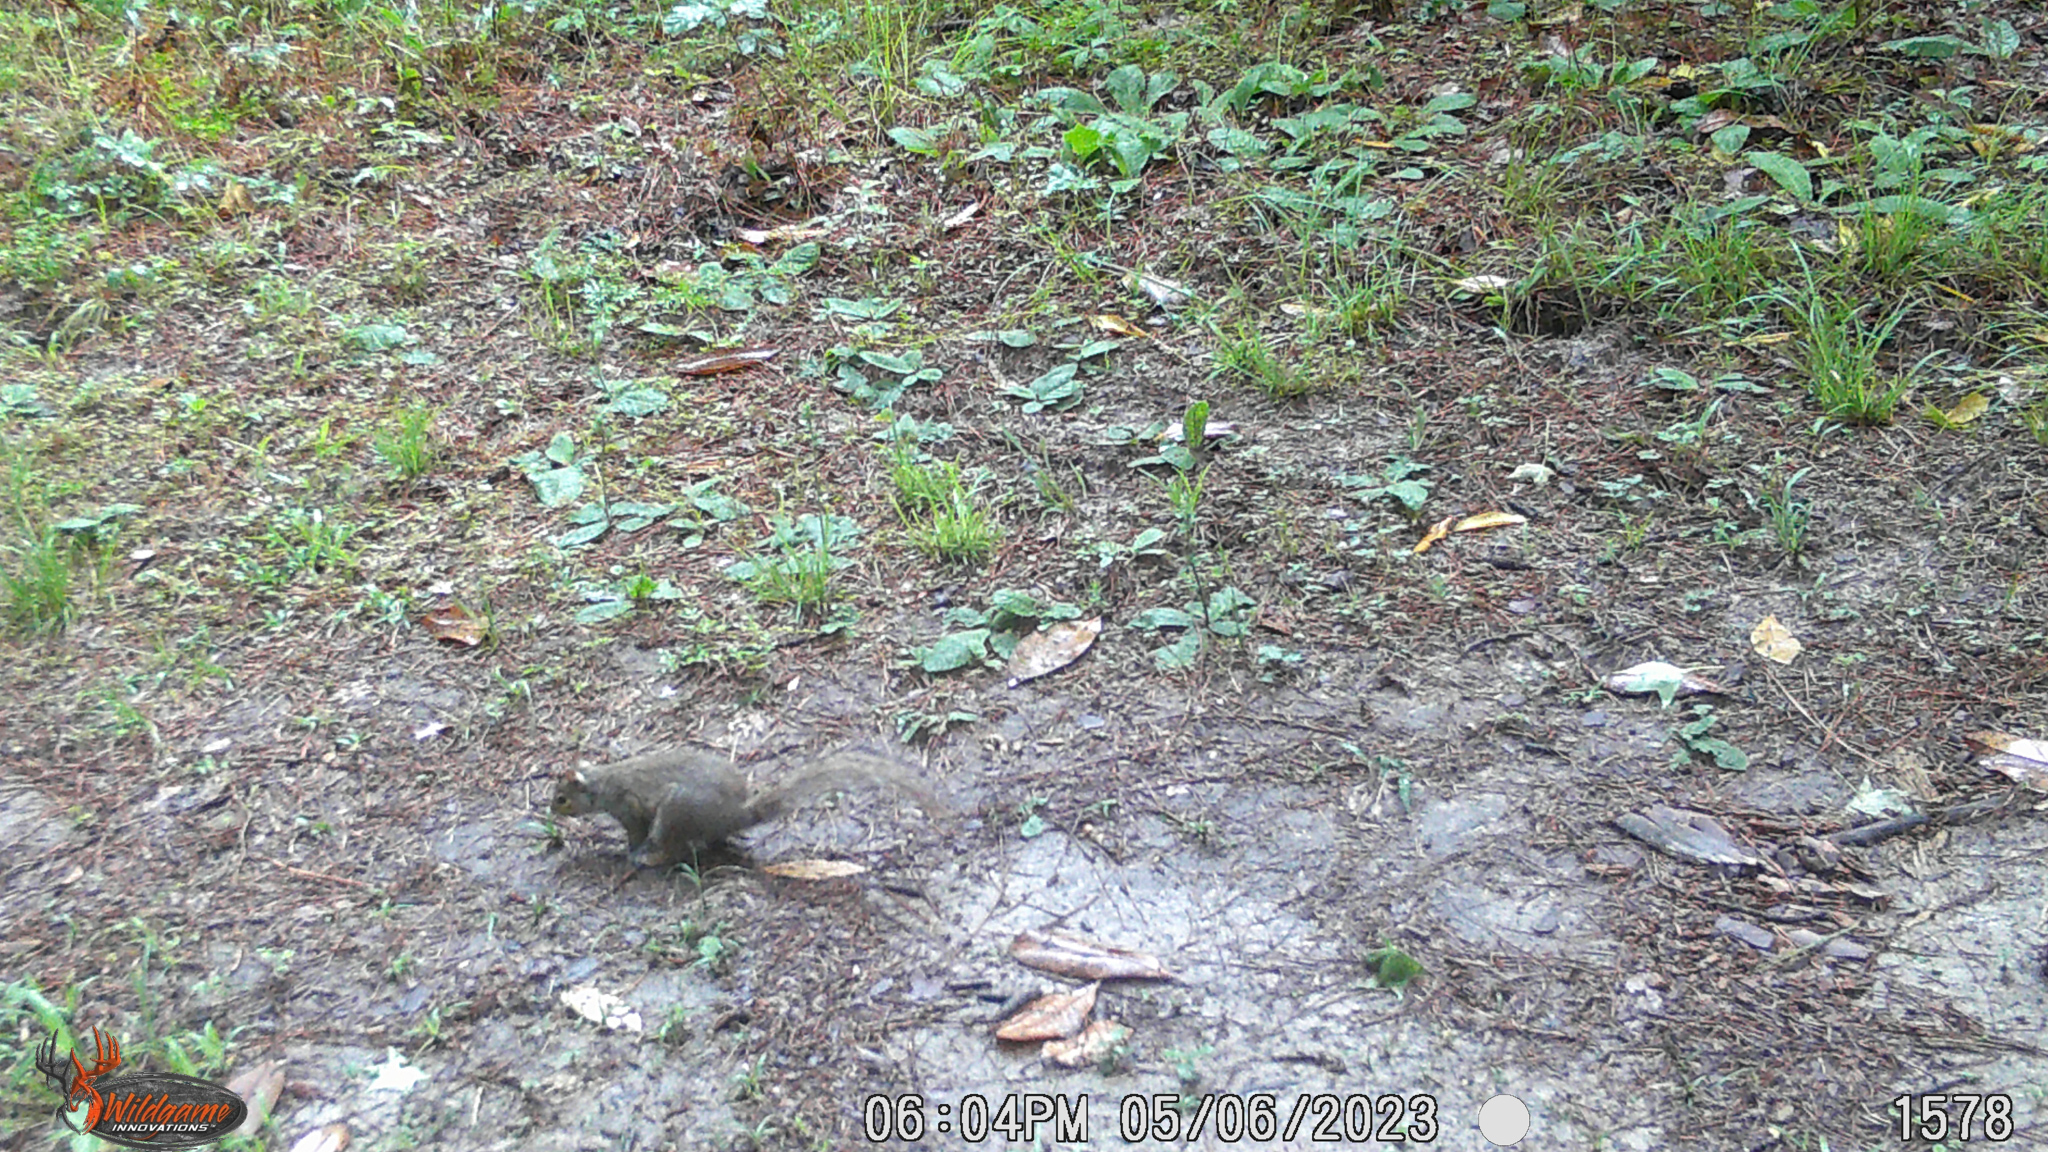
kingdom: Animalia
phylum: Chordata
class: Mammalia
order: Rodentia
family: Sciuridae
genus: Sciurus
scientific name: Sciurus carolinensis
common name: Eastern gray squirrel
